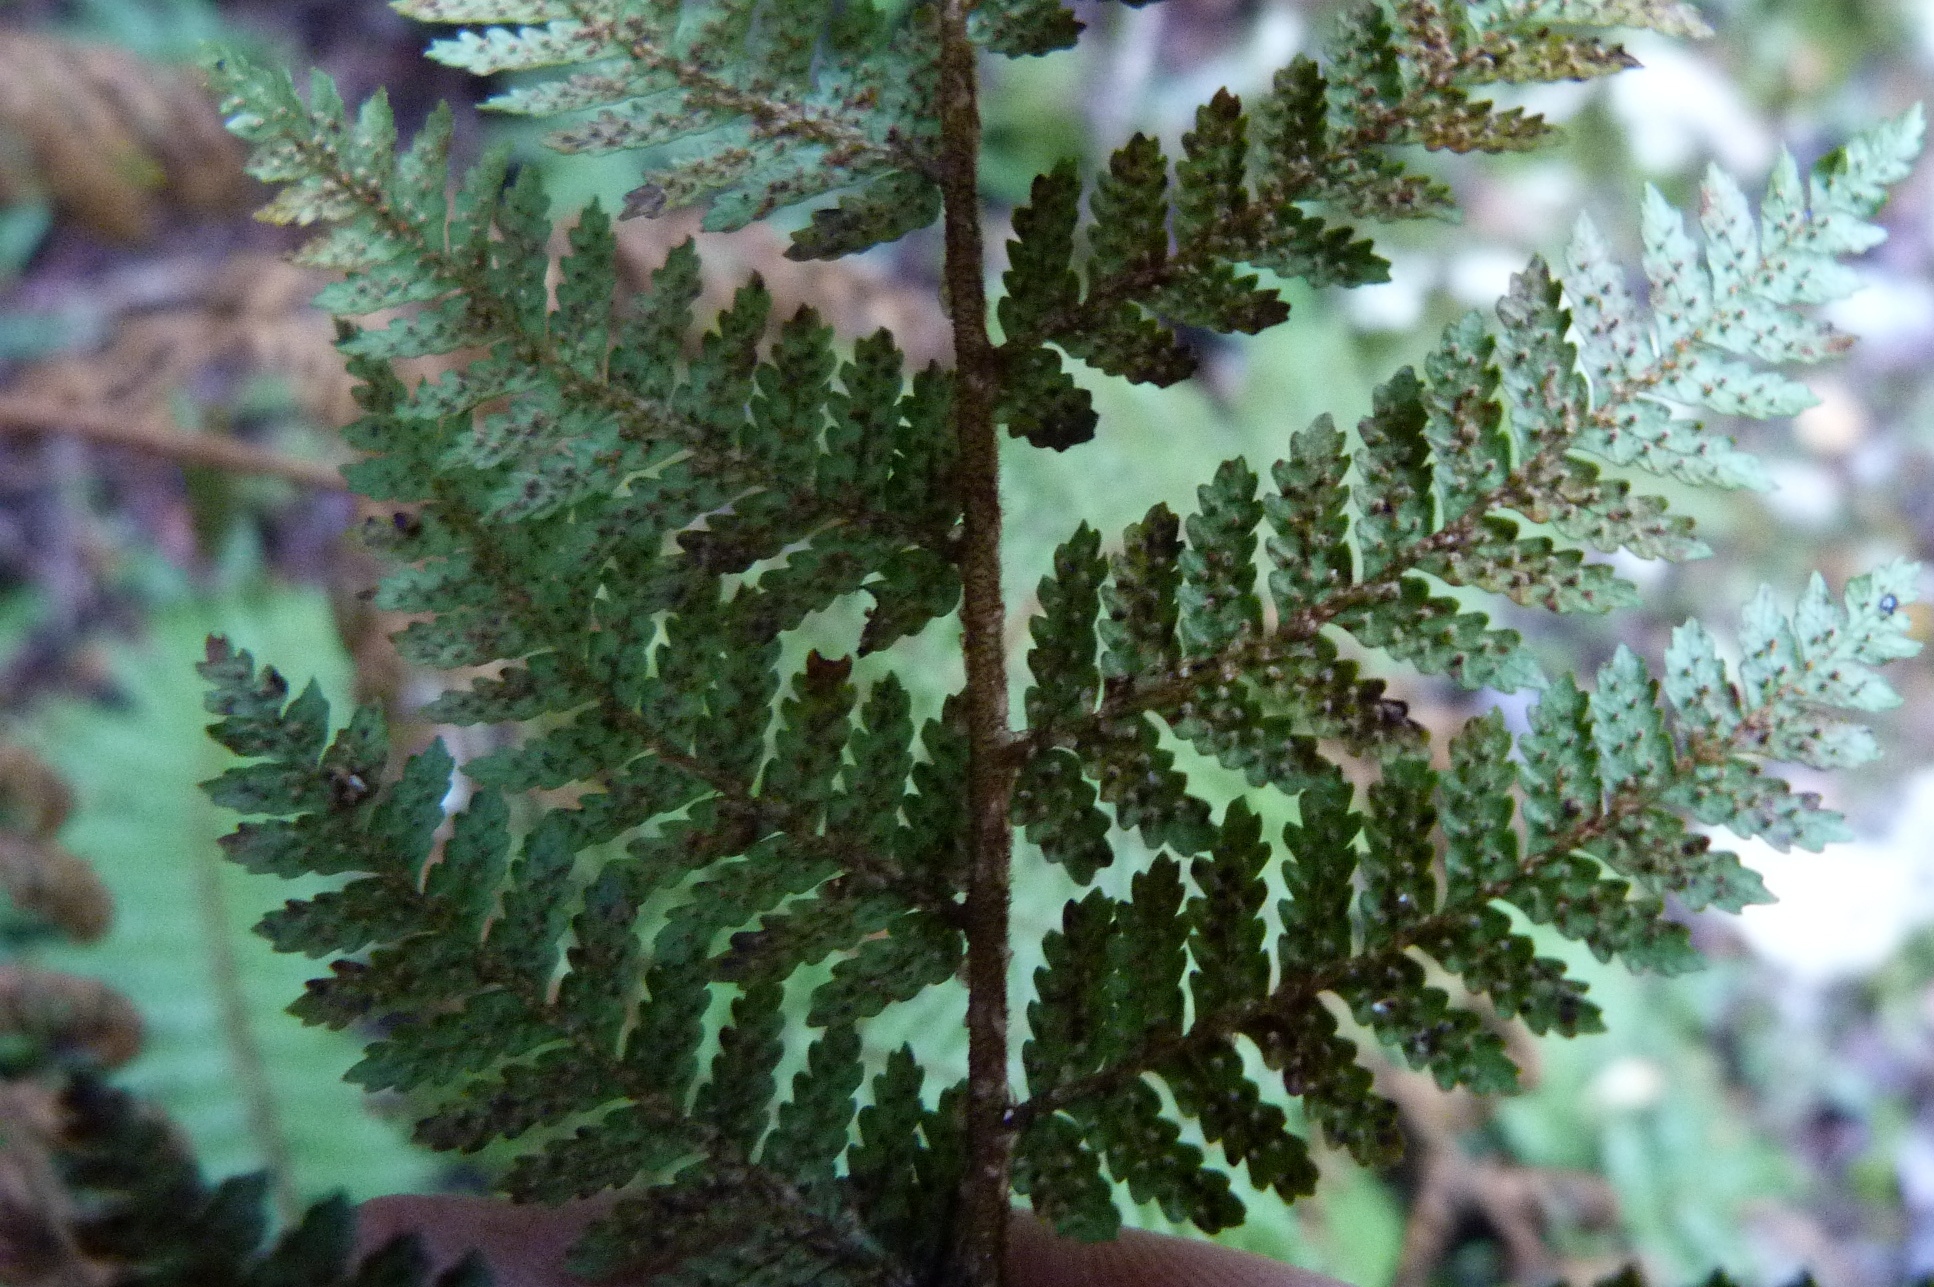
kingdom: Plantae
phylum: Tracheophyta
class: Polypodiopsida
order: Cyatheales
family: Cyatheaceae
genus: Alsophila
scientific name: Alsophila colensoi
